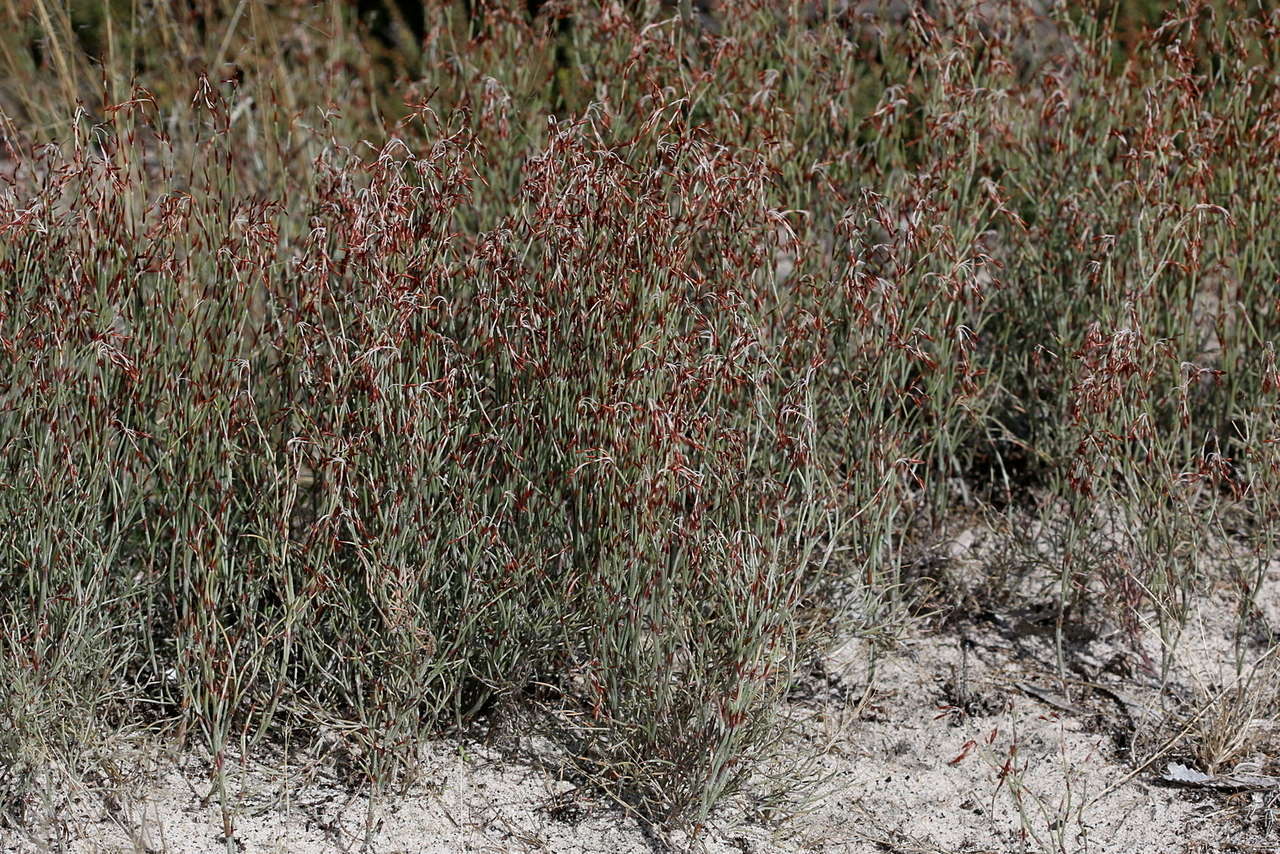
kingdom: Plantae
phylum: Tracheophyta
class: Liliopsida
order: Poales
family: Restionaceae
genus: Hypolaena
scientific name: Hypolaena fastigiata
